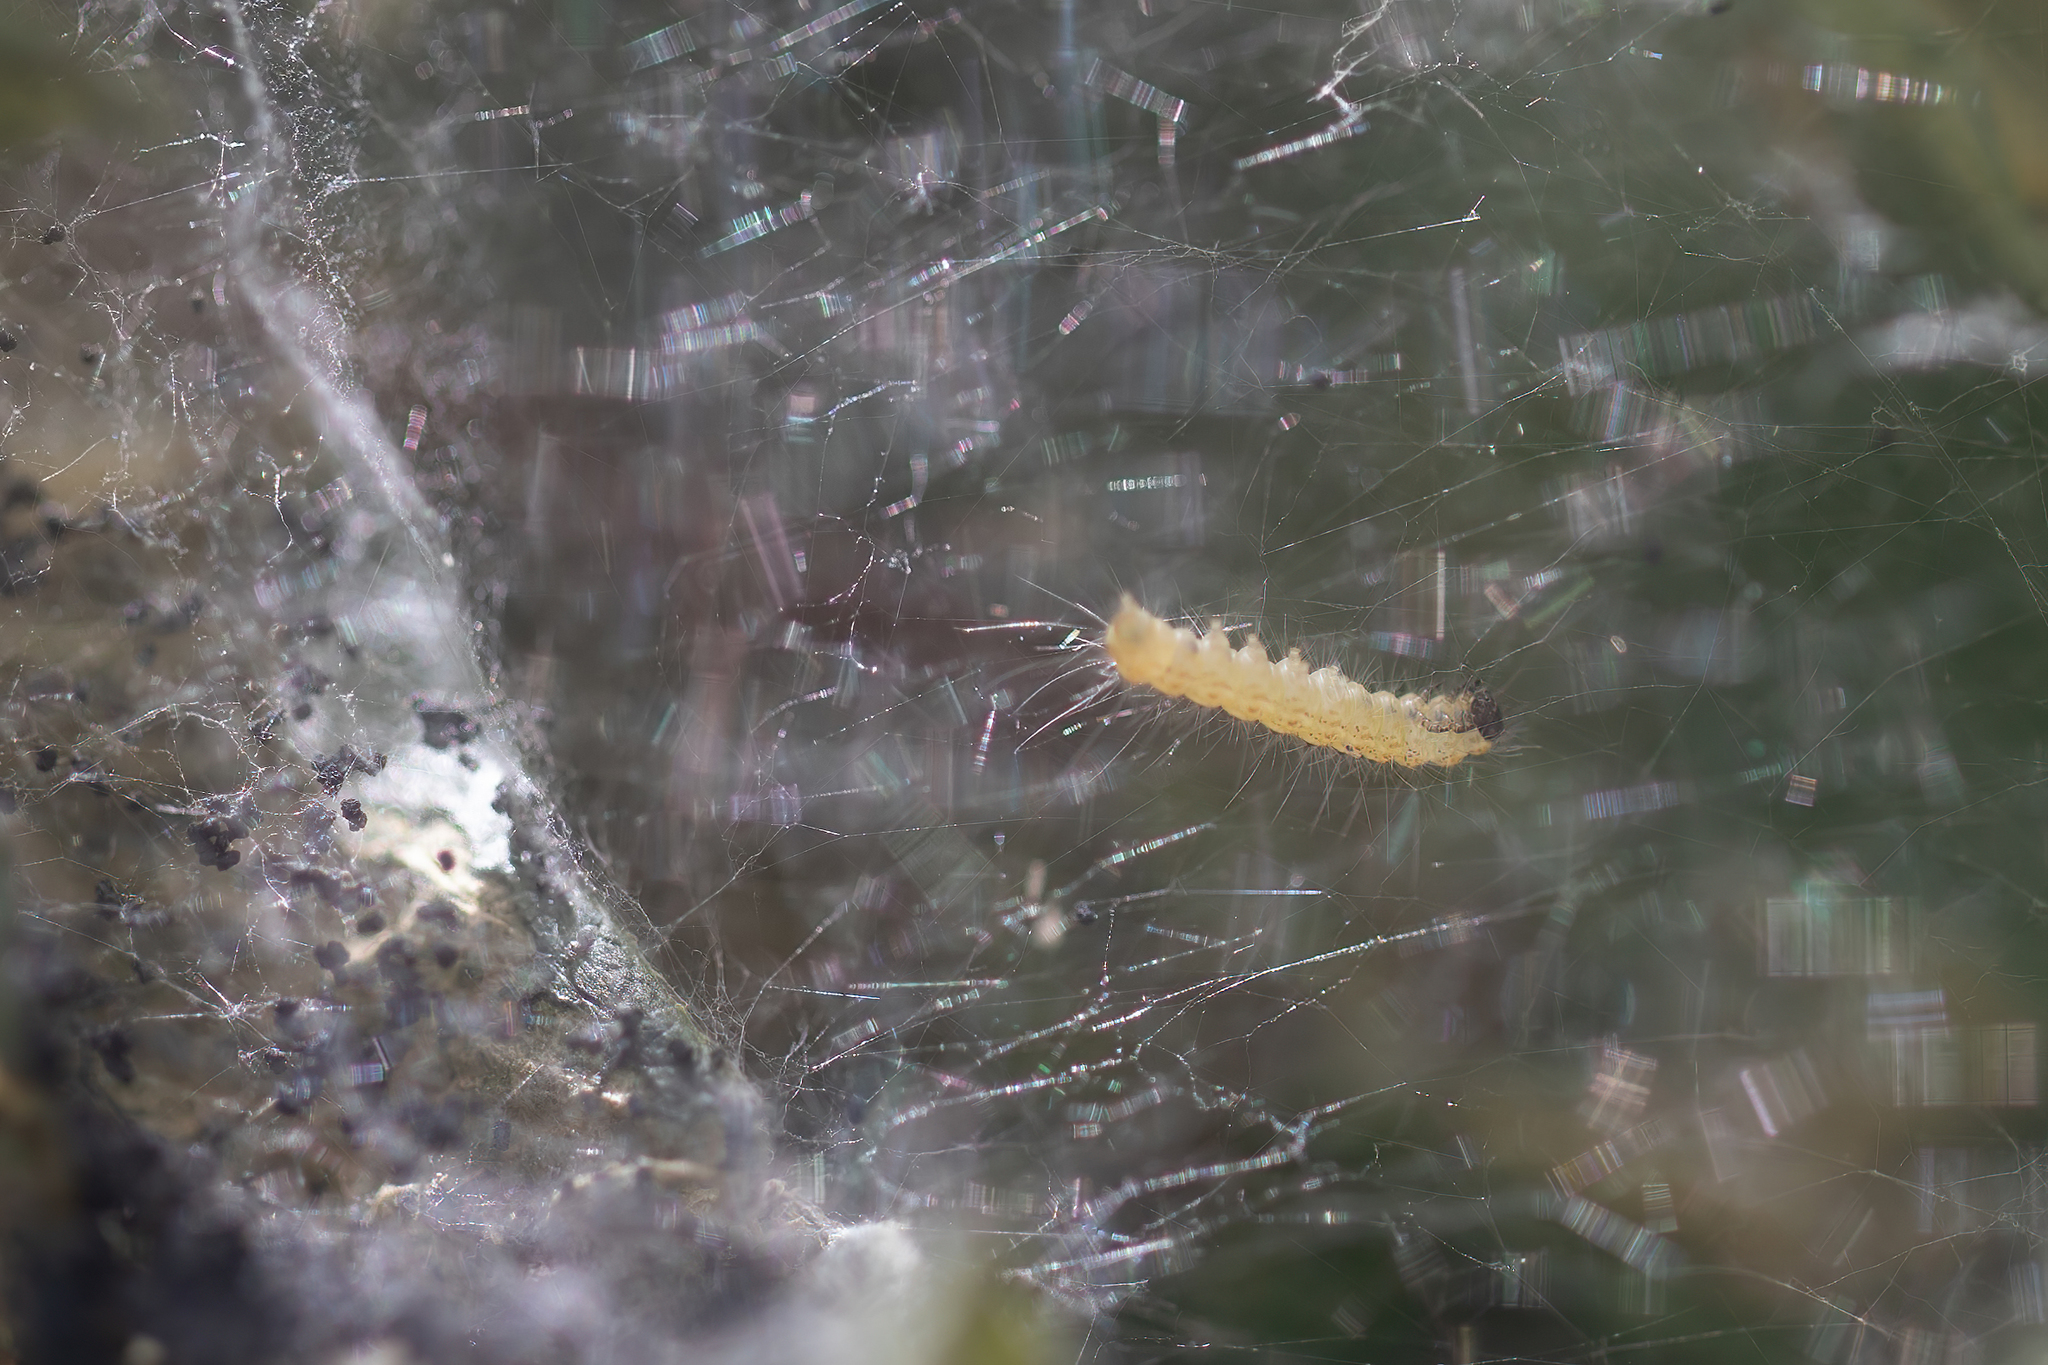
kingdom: Animalia
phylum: Arthropoda
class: Insecta
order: Lepidoptera
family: Erebidae
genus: Hyphantria
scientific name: Hyphantria cunea
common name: American white moth
